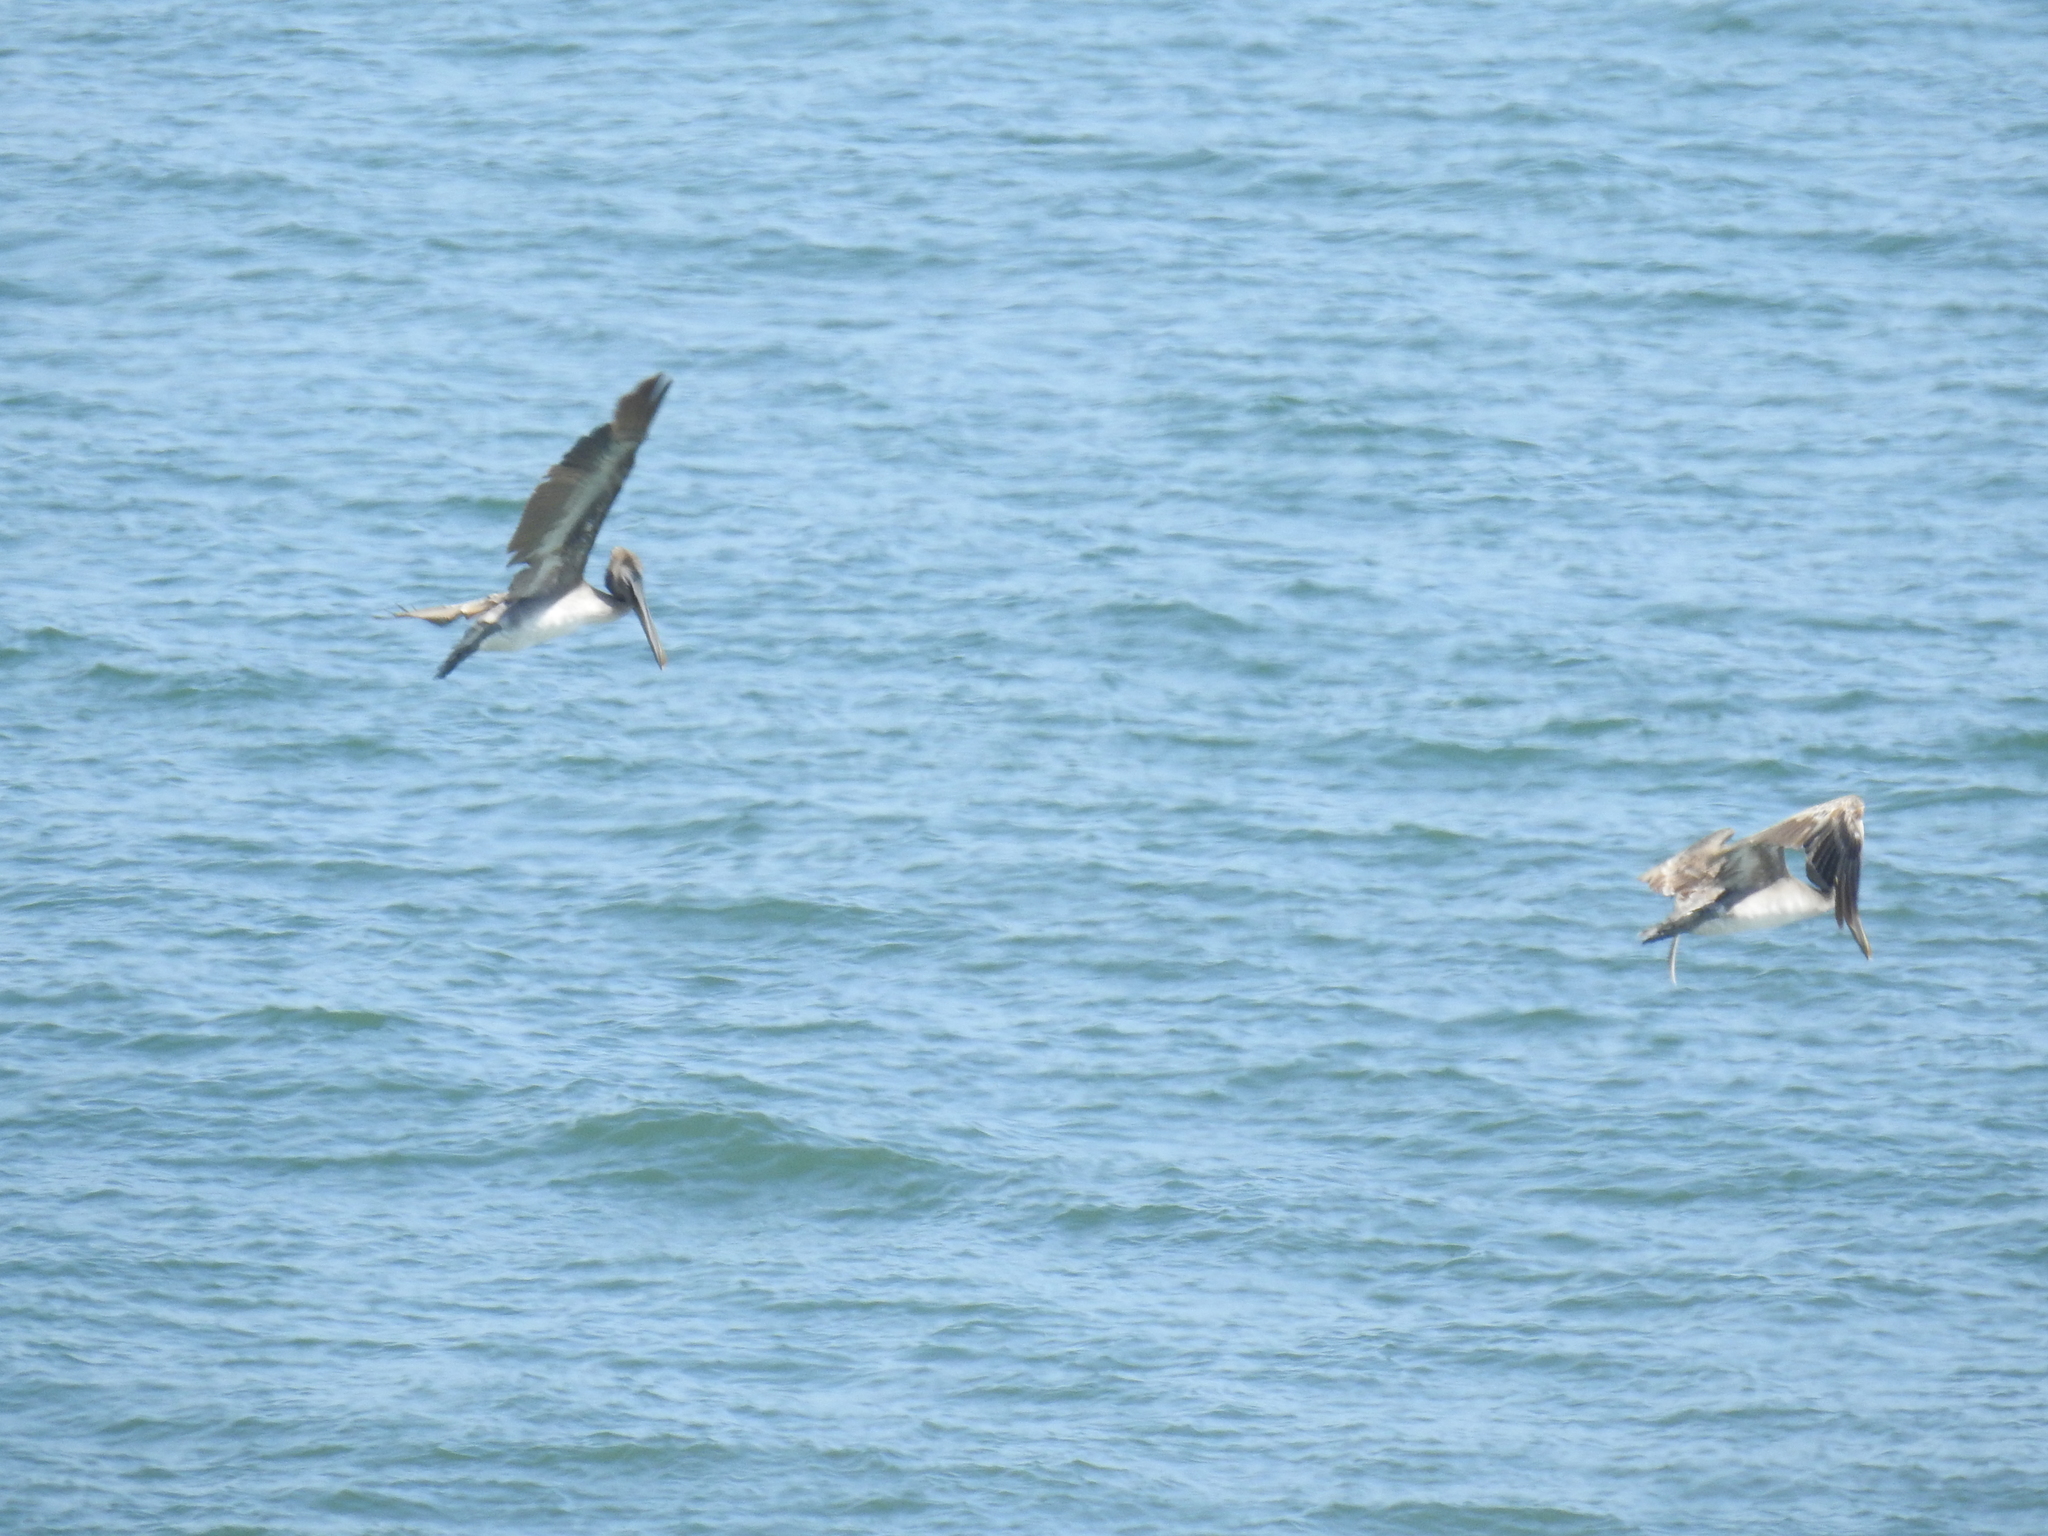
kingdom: Animalia
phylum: Chordata
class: Aves
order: Pelecaniformes
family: Pelecanidae
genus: Pelecanus
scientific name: Pelecanus occidentalis
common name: Brown pelican
